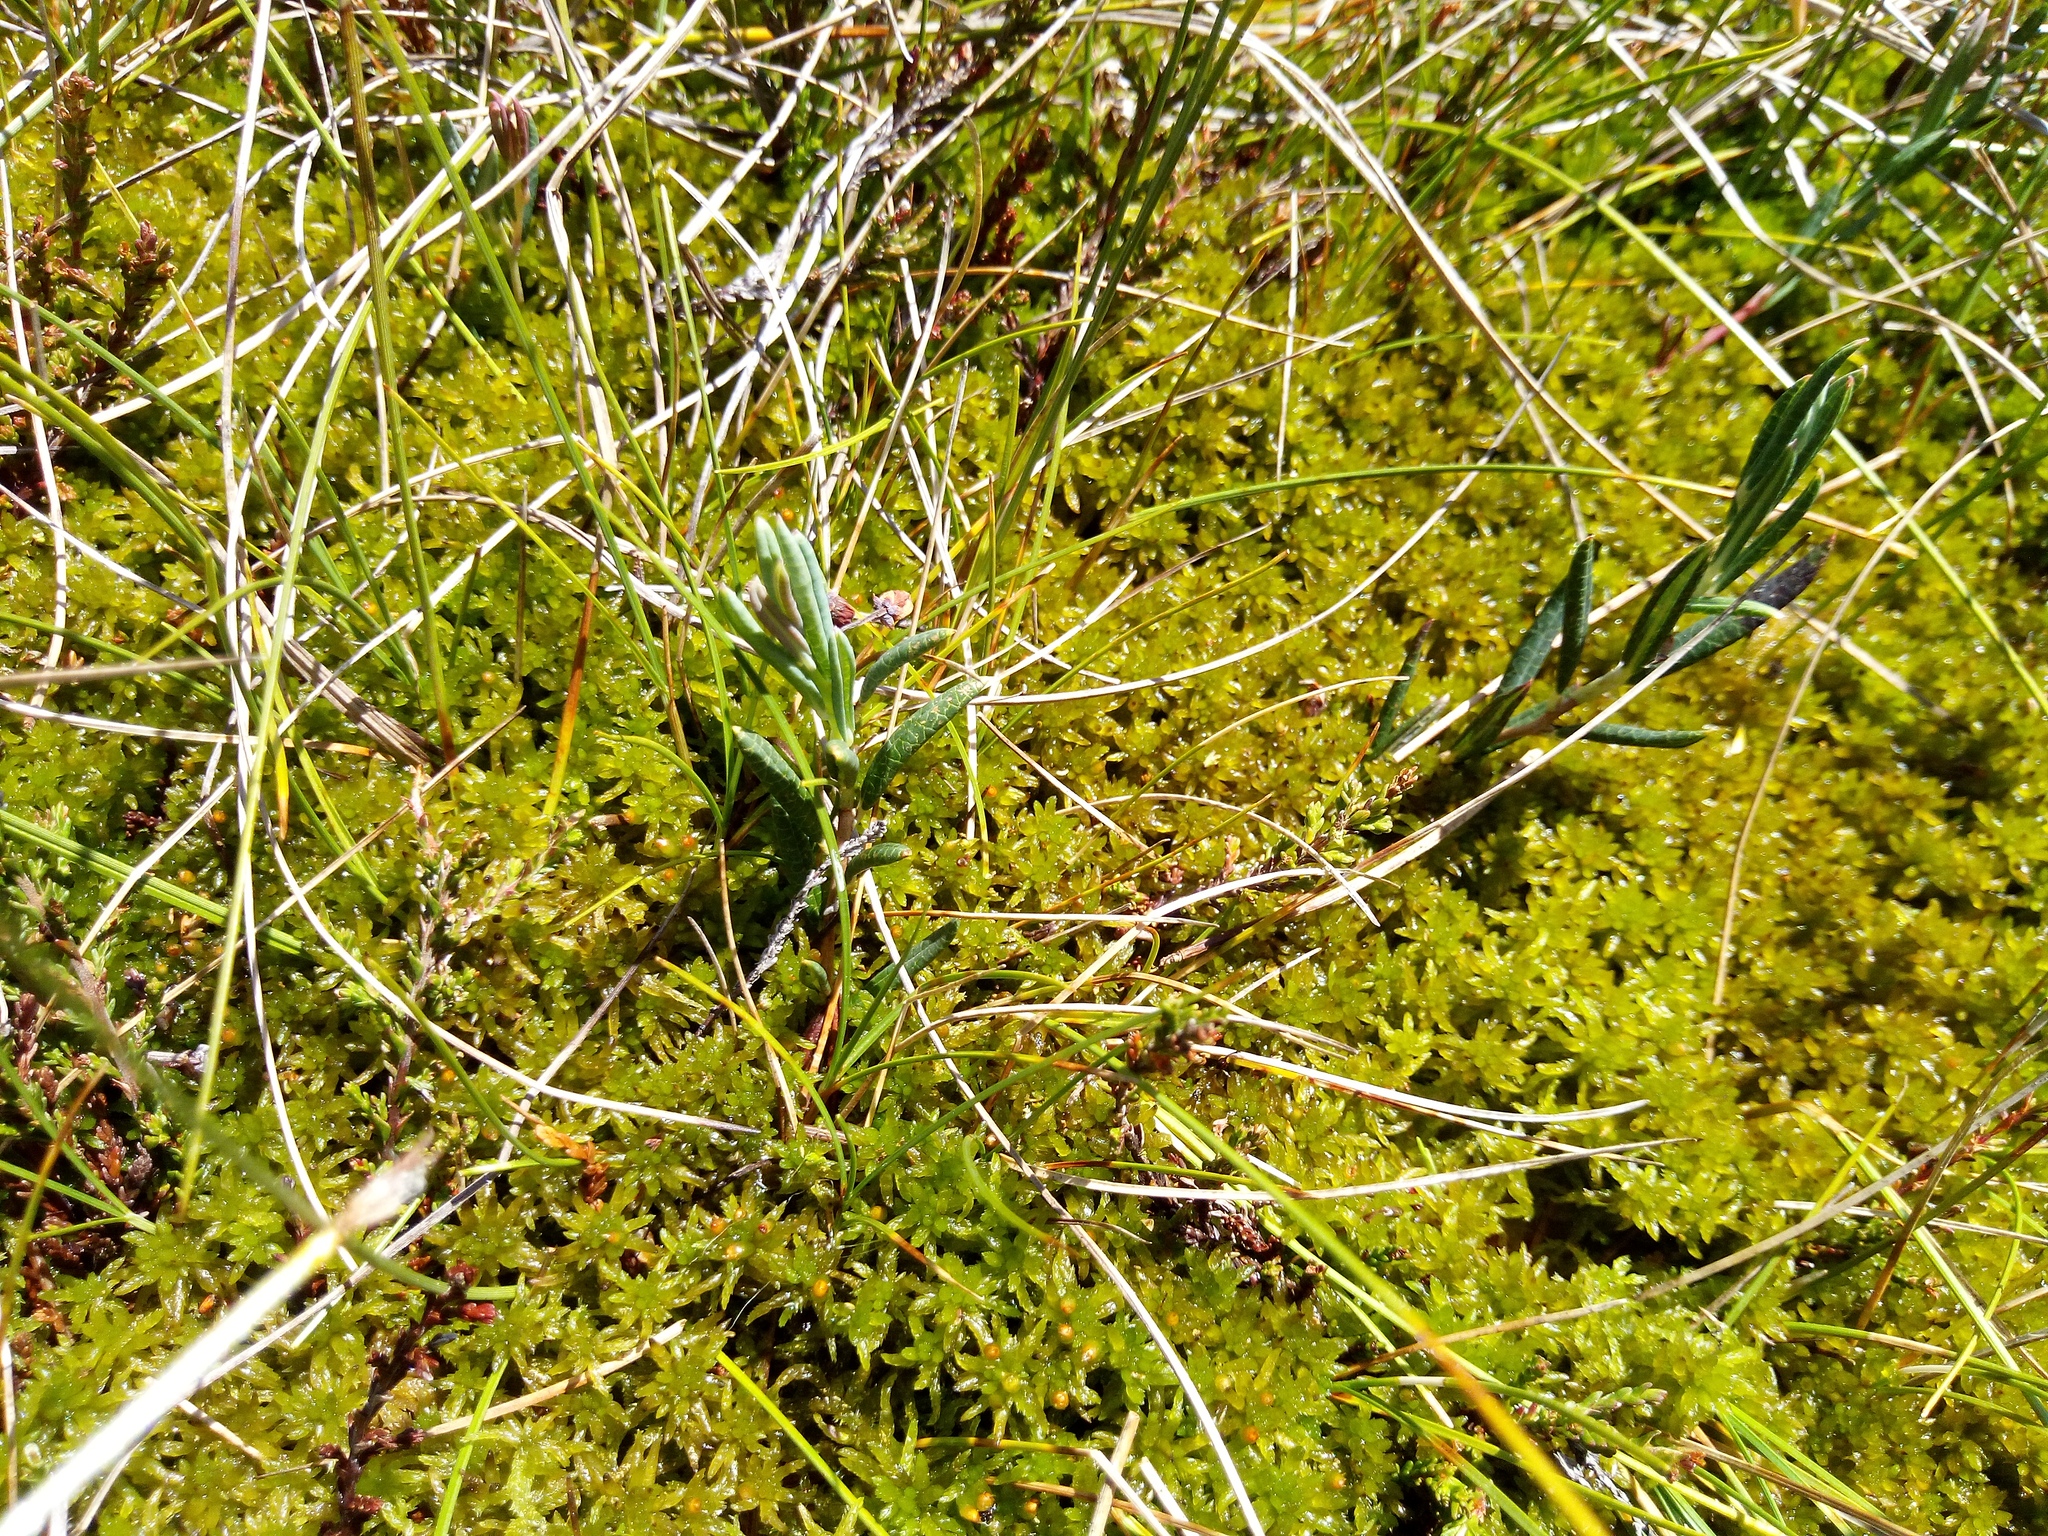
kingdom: Plantae
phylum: Tracheophyta
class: Magnoliopsida
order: Ericales
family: Ericaceae
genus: Andromeda
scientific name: Andromeda polifolia
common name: Bog-rosemary
